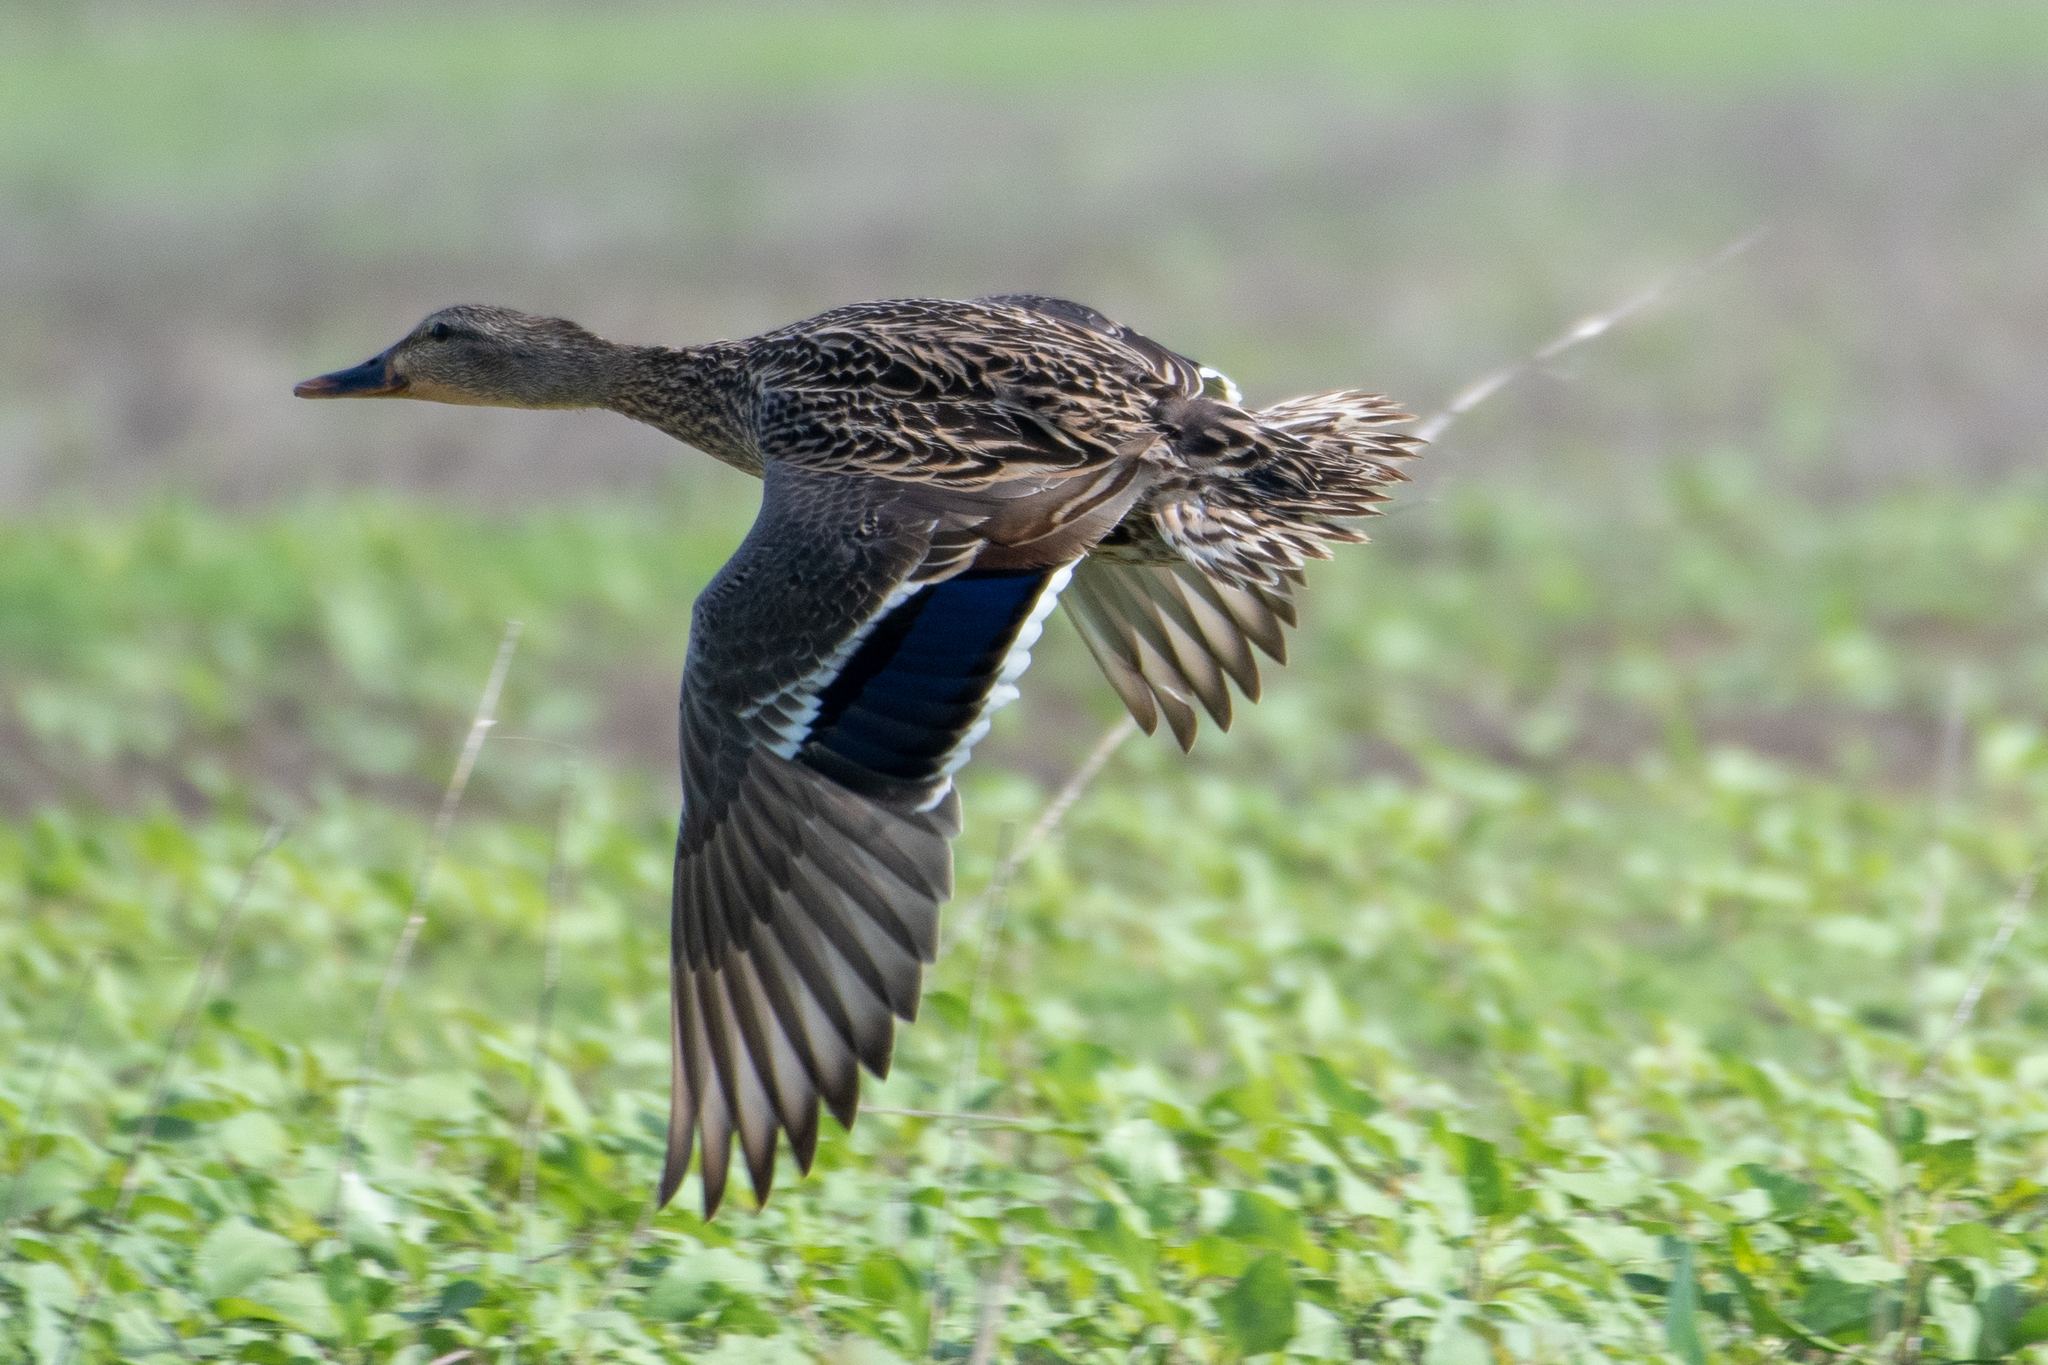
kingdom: Animalia
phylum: Chordata
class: Aves
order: Anseriformes
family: Anatidae
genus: Anas
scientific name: Anas platyrhynchos
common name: Mallard
